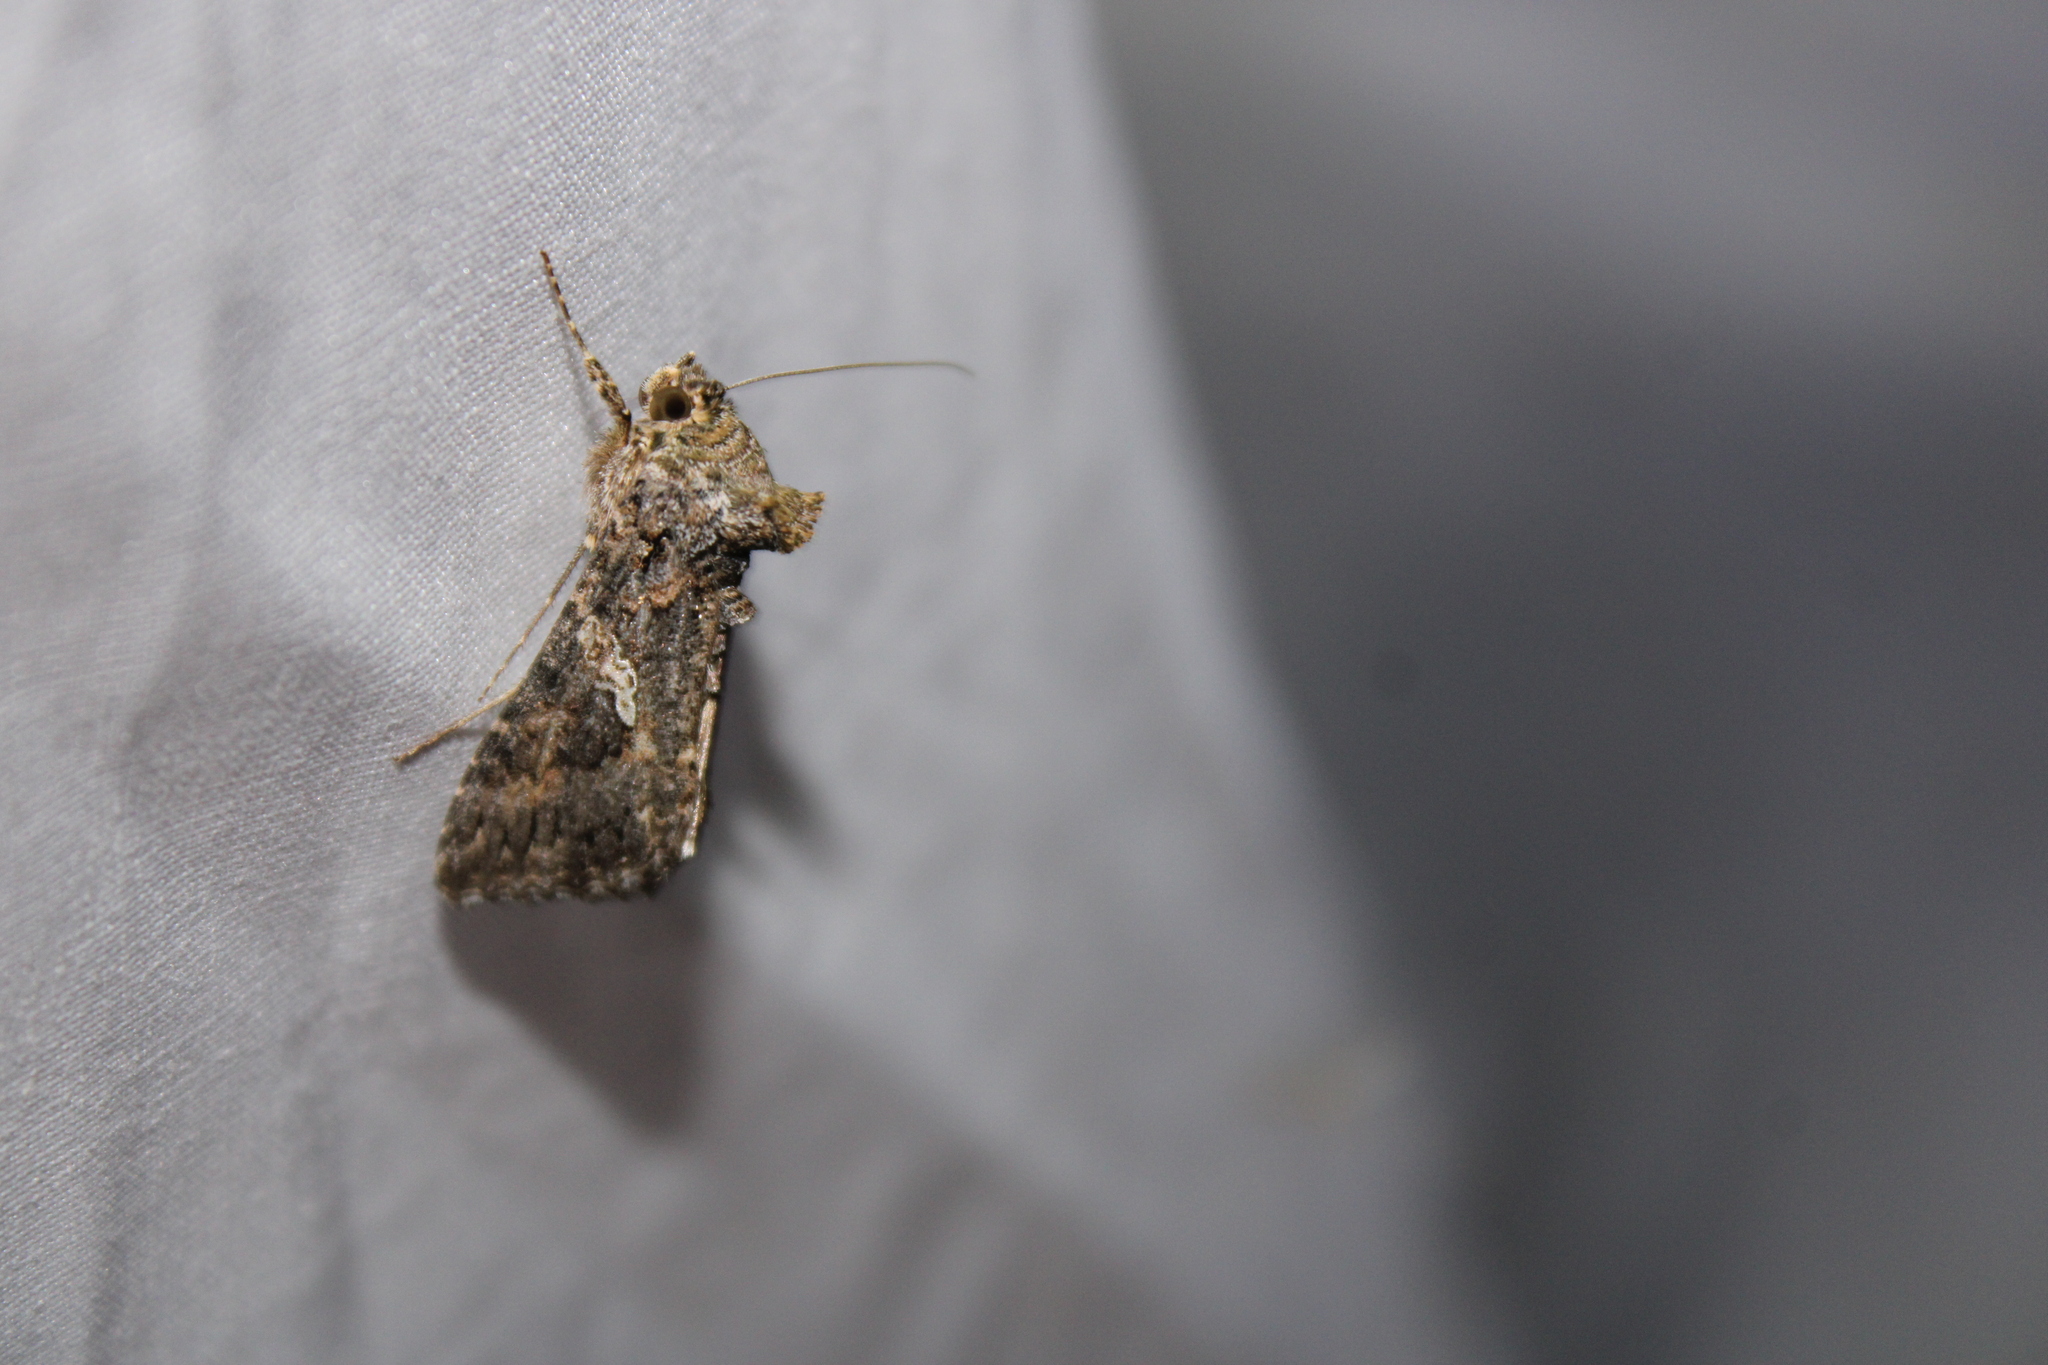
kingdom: Animalia
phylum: Arthropoda
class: Insecta
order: Lepidoptera
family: Noctuidae
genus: Trichoplusia
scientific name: Trichoplusia ni
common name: Ni moth
